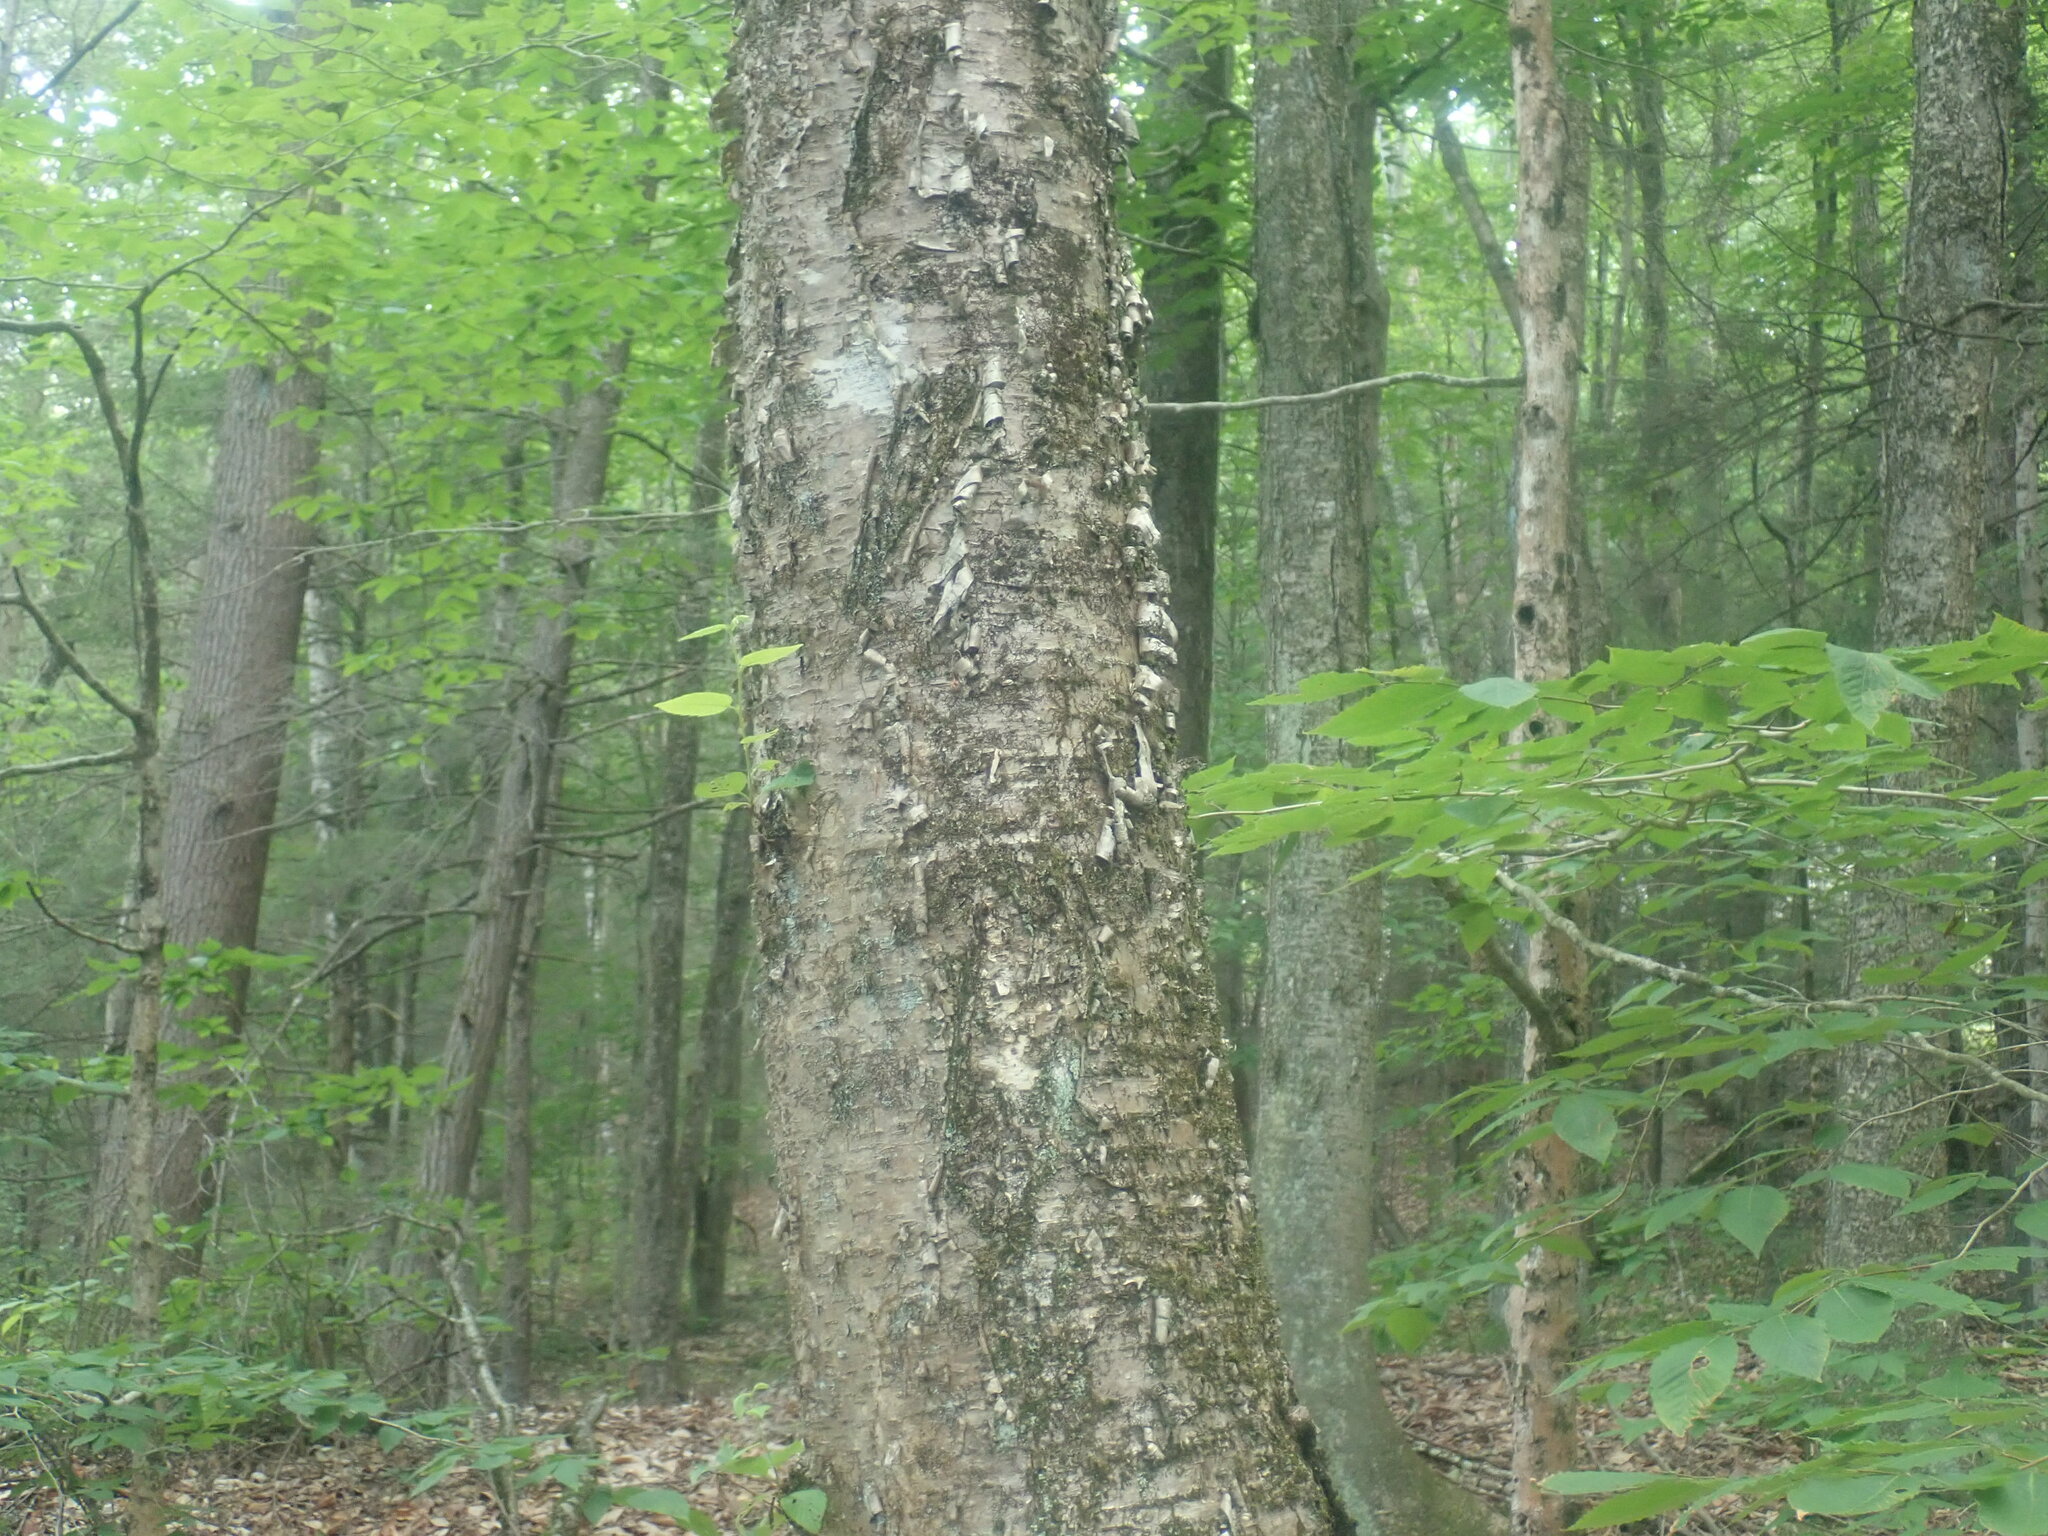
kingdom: Plantae
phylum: Tracheophyta
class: Magnoliopsida
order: Fagales
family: Betulaceae
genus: Betula
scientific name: Betula alleghaniensis
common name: Yellow birch
